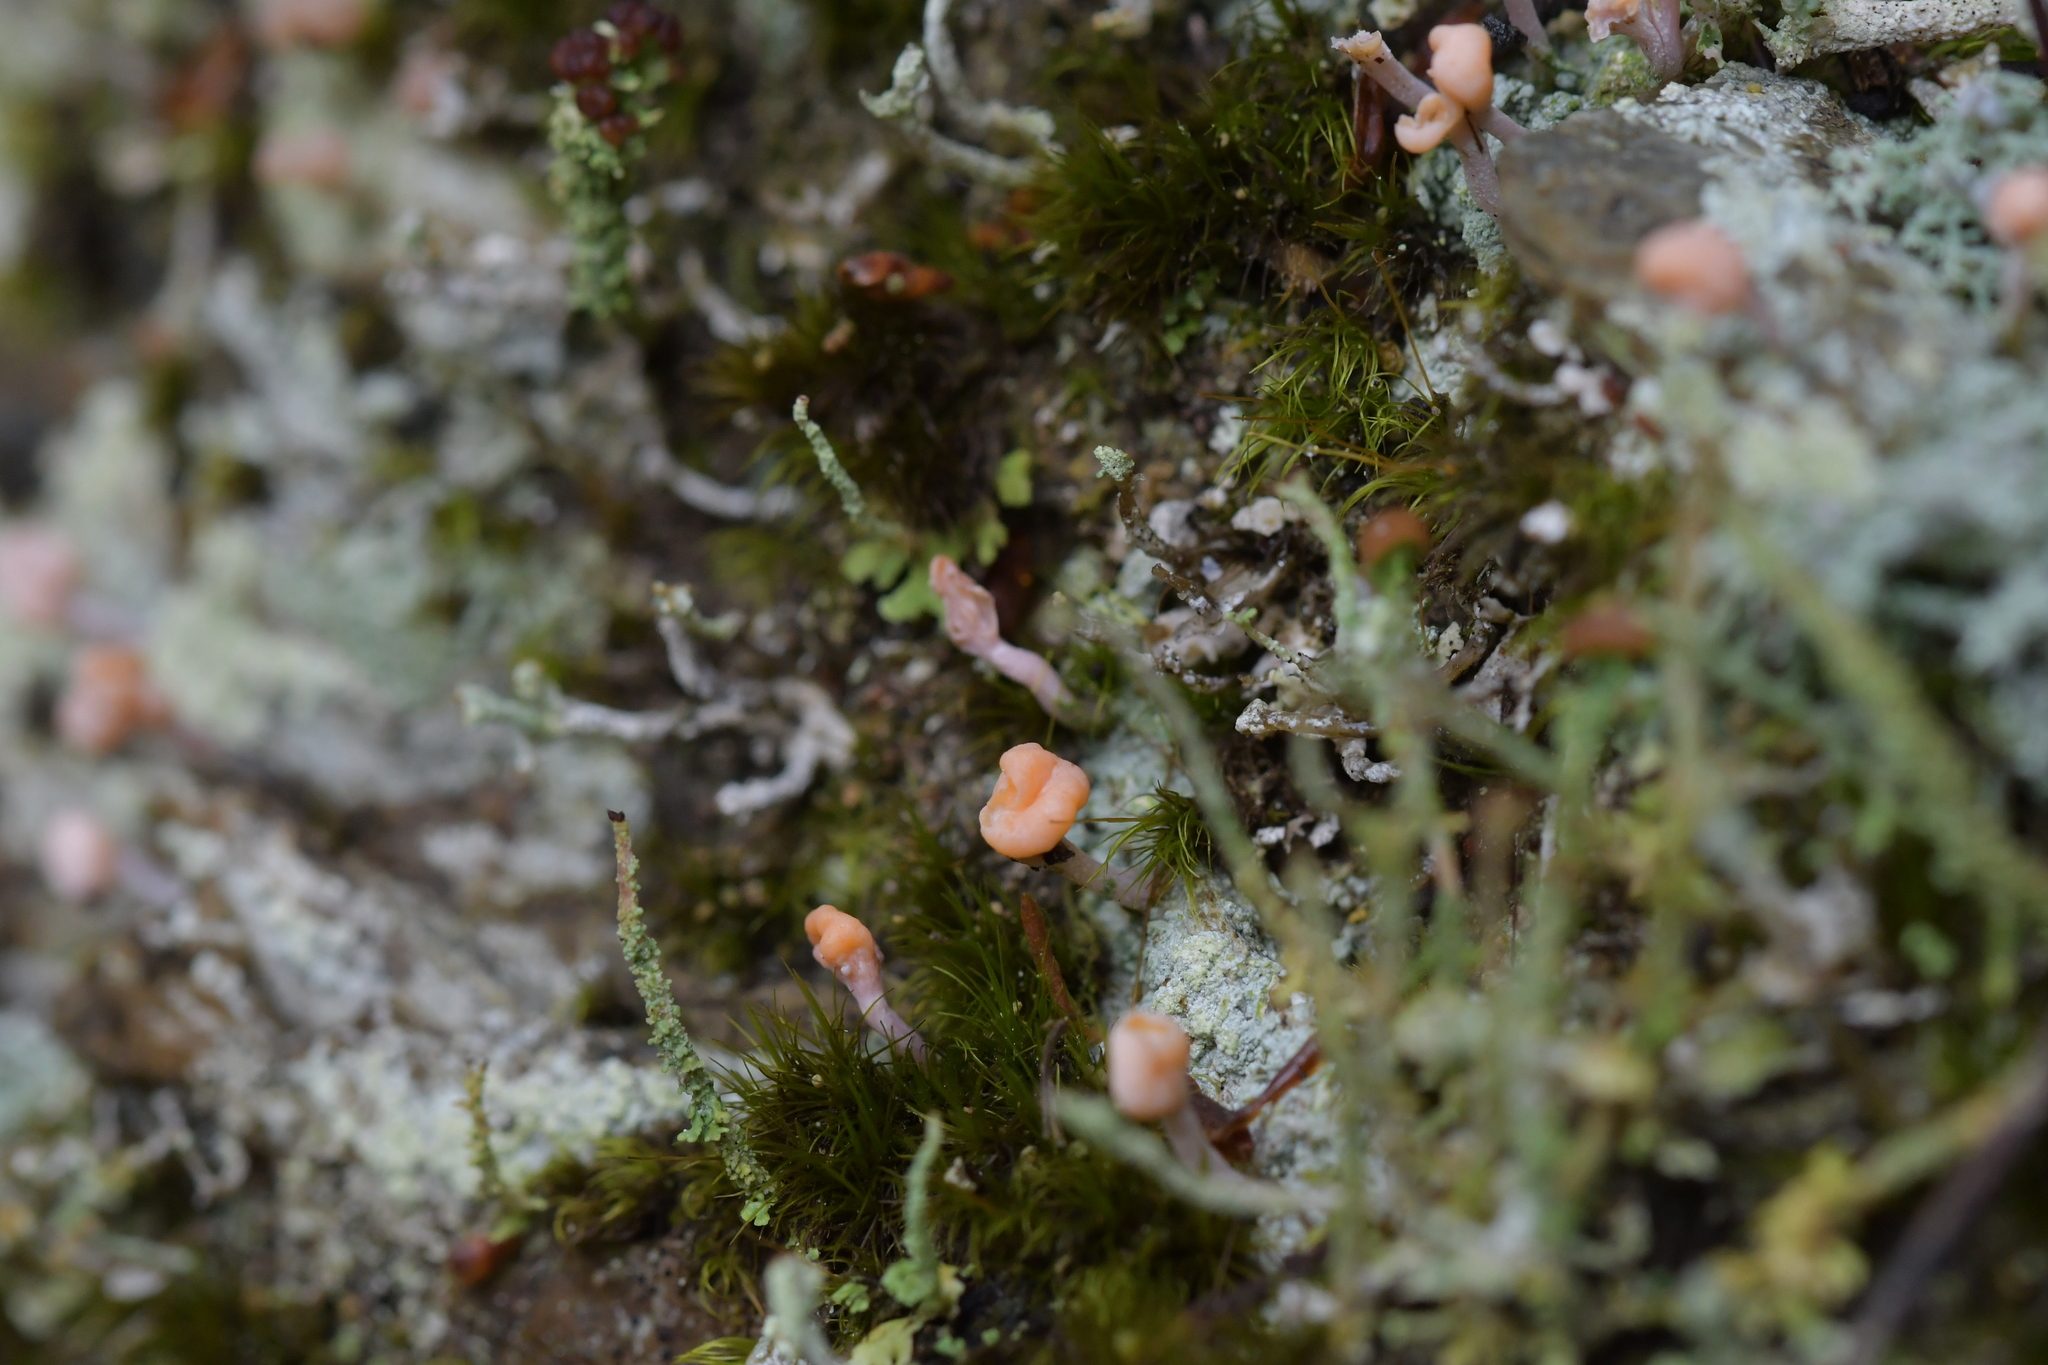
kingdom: Fungi
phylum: Ascomycota
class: Lecanoromycetes
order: Pertusariales
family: Icmadophilaceae
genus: Dibaeis
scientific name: Dibaeis arcuata
